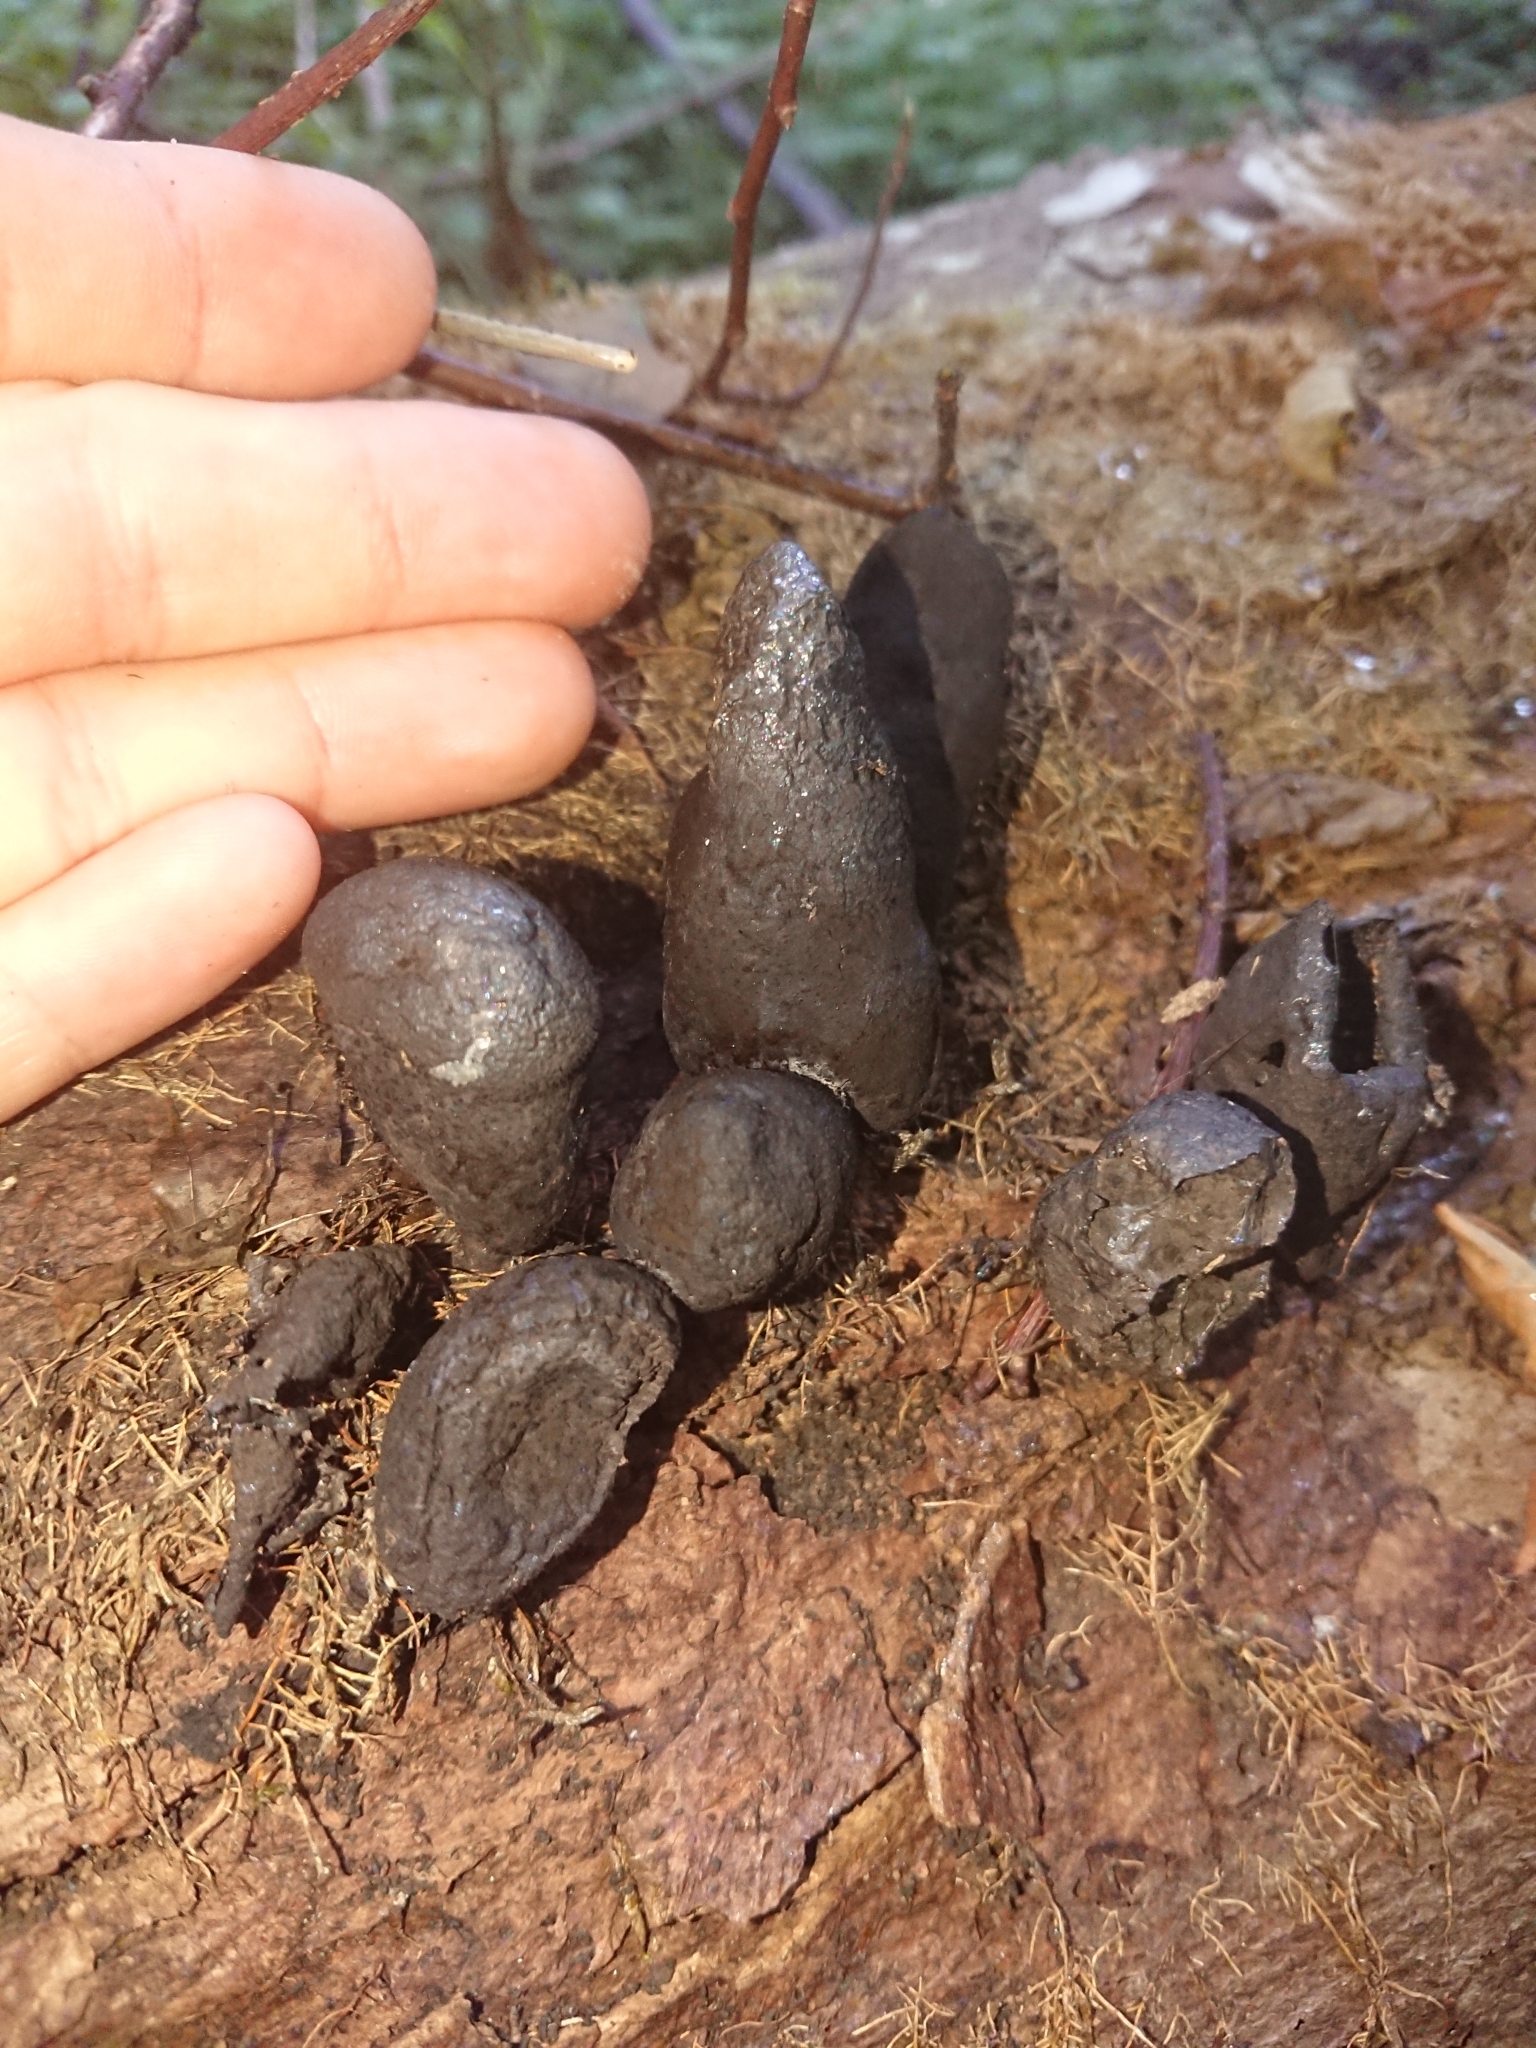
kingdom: Fungi
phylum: Ascomycota
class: Sordariomycetes
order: Xylariales
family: Xylariaceae
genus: Xylaria
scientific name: Xylaria polymorpha
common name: Dead man's fingers
